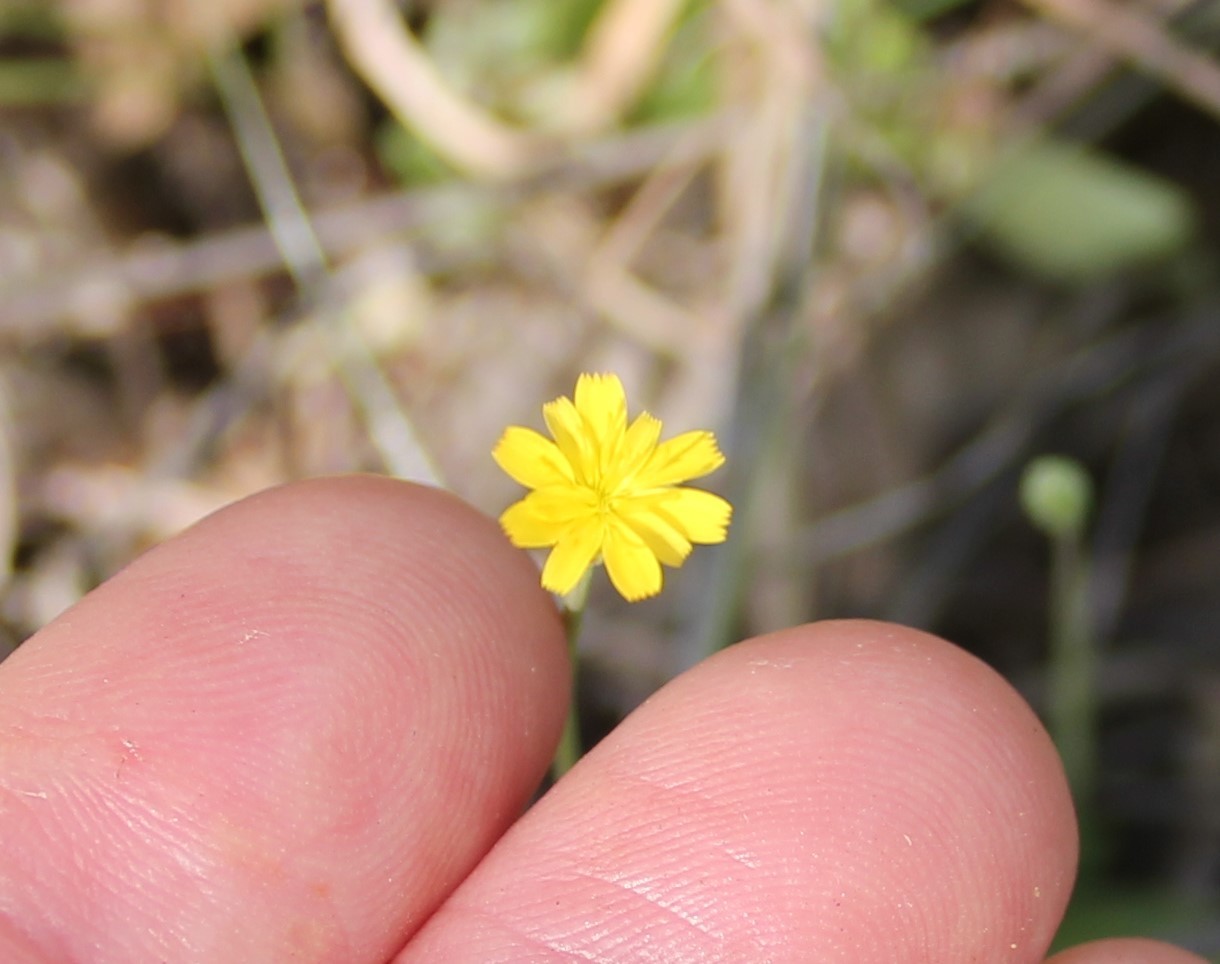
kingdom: Plantae
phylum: Tracheophyta
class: Magnoliopsida
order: Asterales
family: Asteraceae
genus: Hypochaeris
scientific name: Hypochaeris glabra
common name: Smooth catsear
